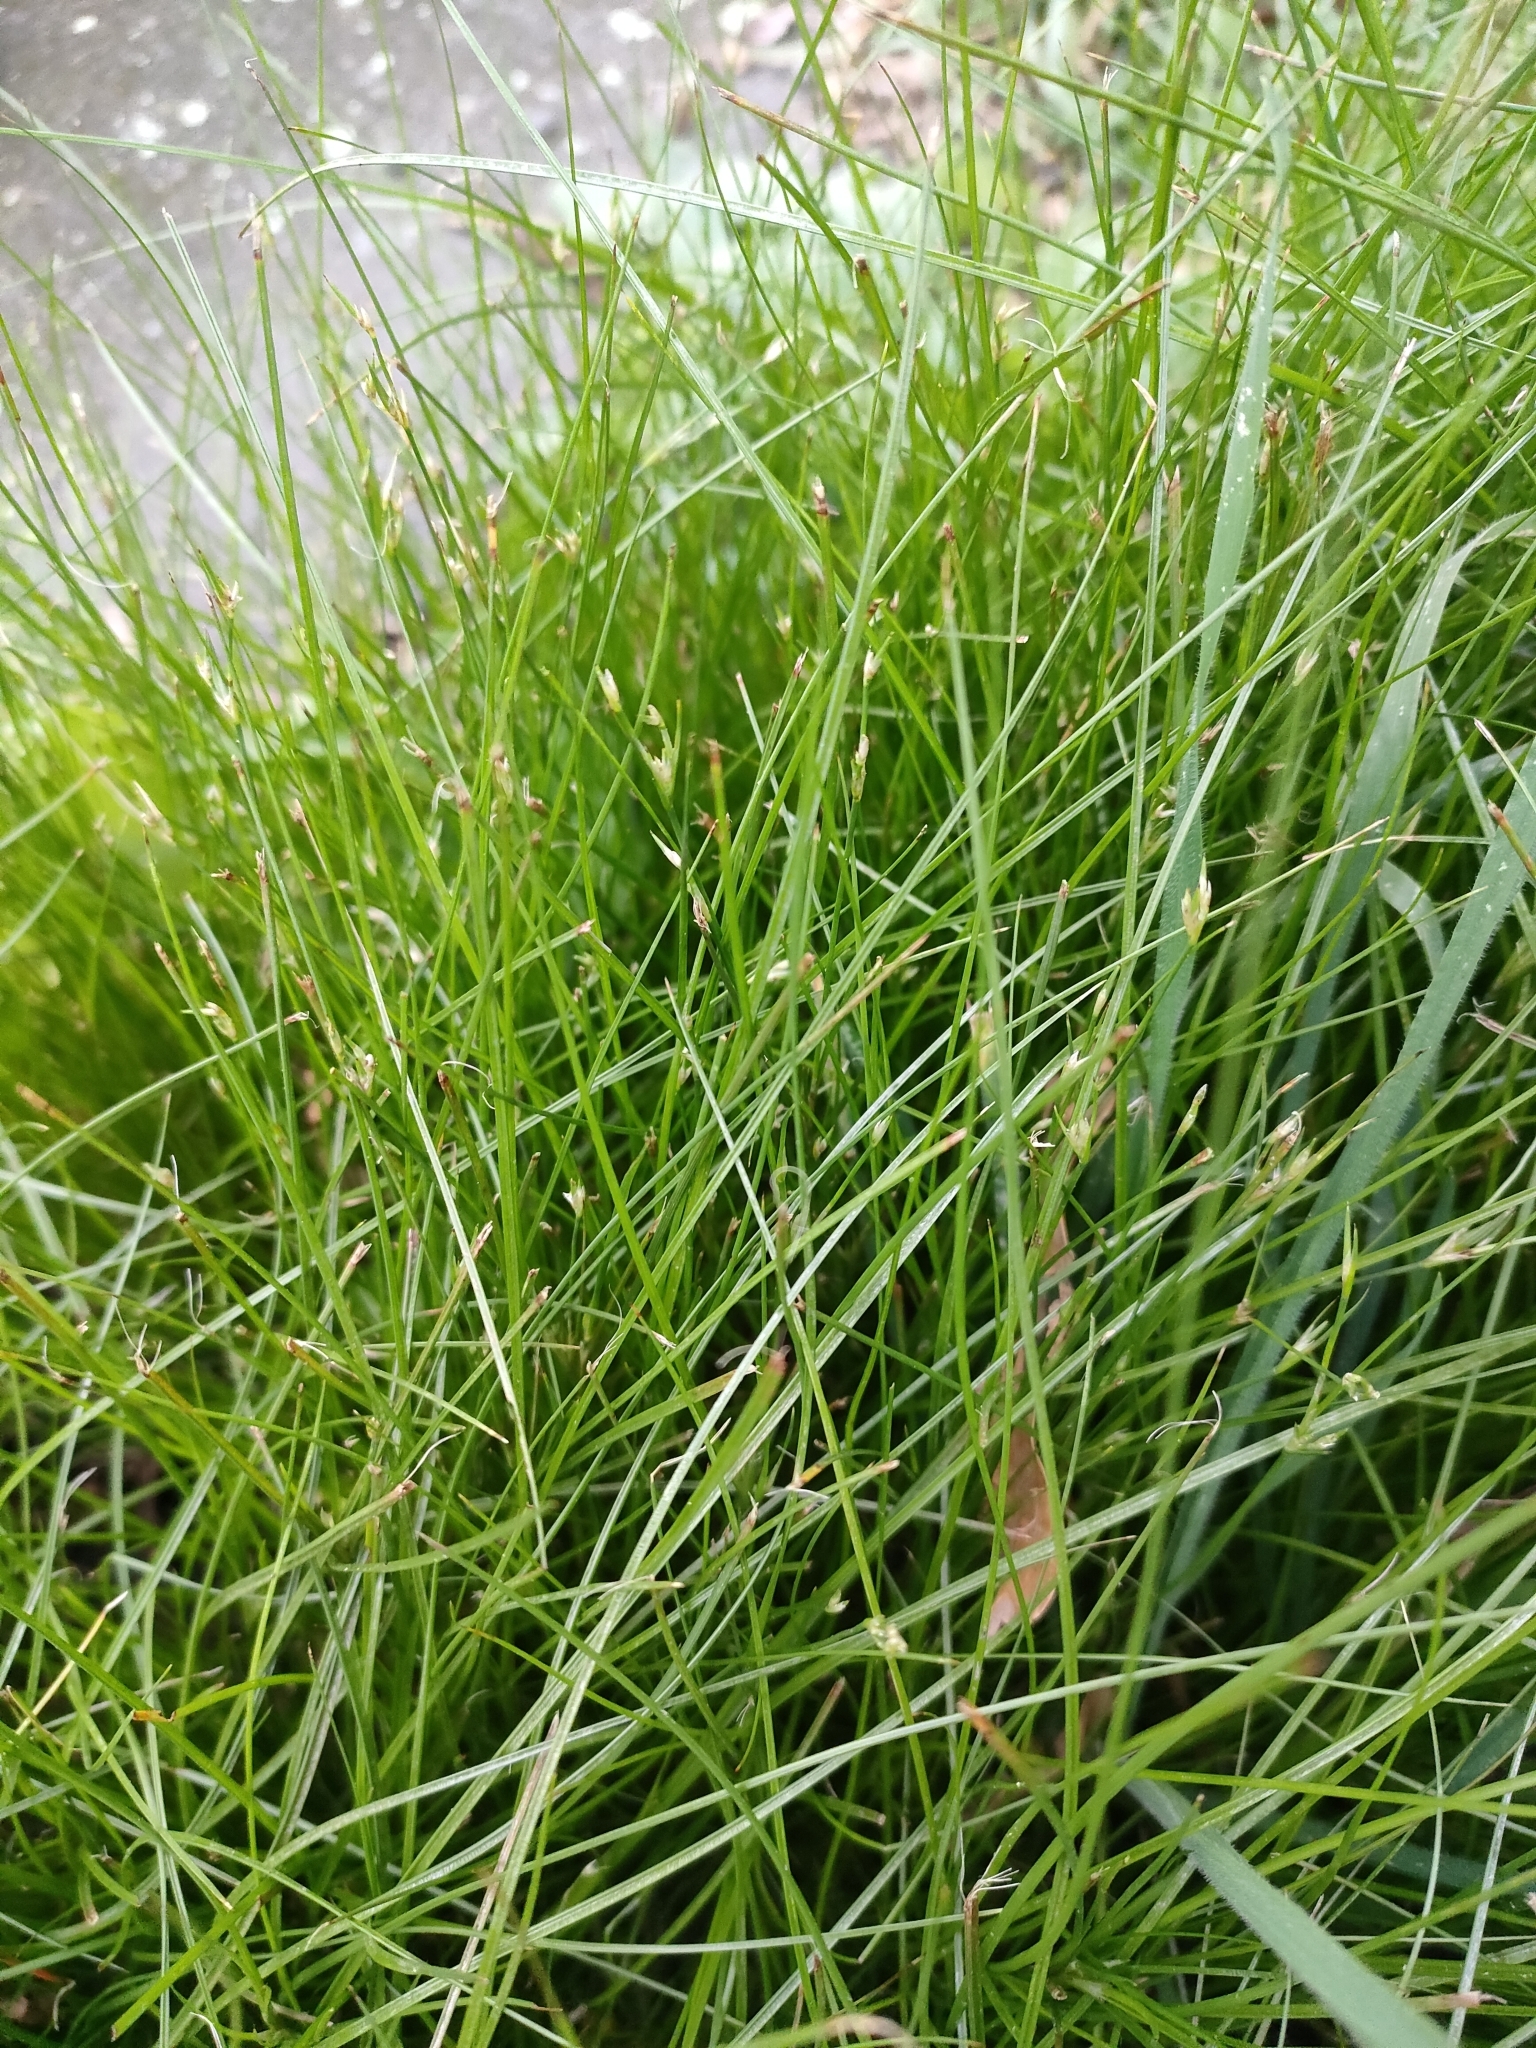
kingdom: Plantae
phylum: Tracheophyta
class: Liliopsida
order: Poales
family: Juncaceae
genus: Juncus
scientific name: Juncus bufonius
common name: Toad rush
